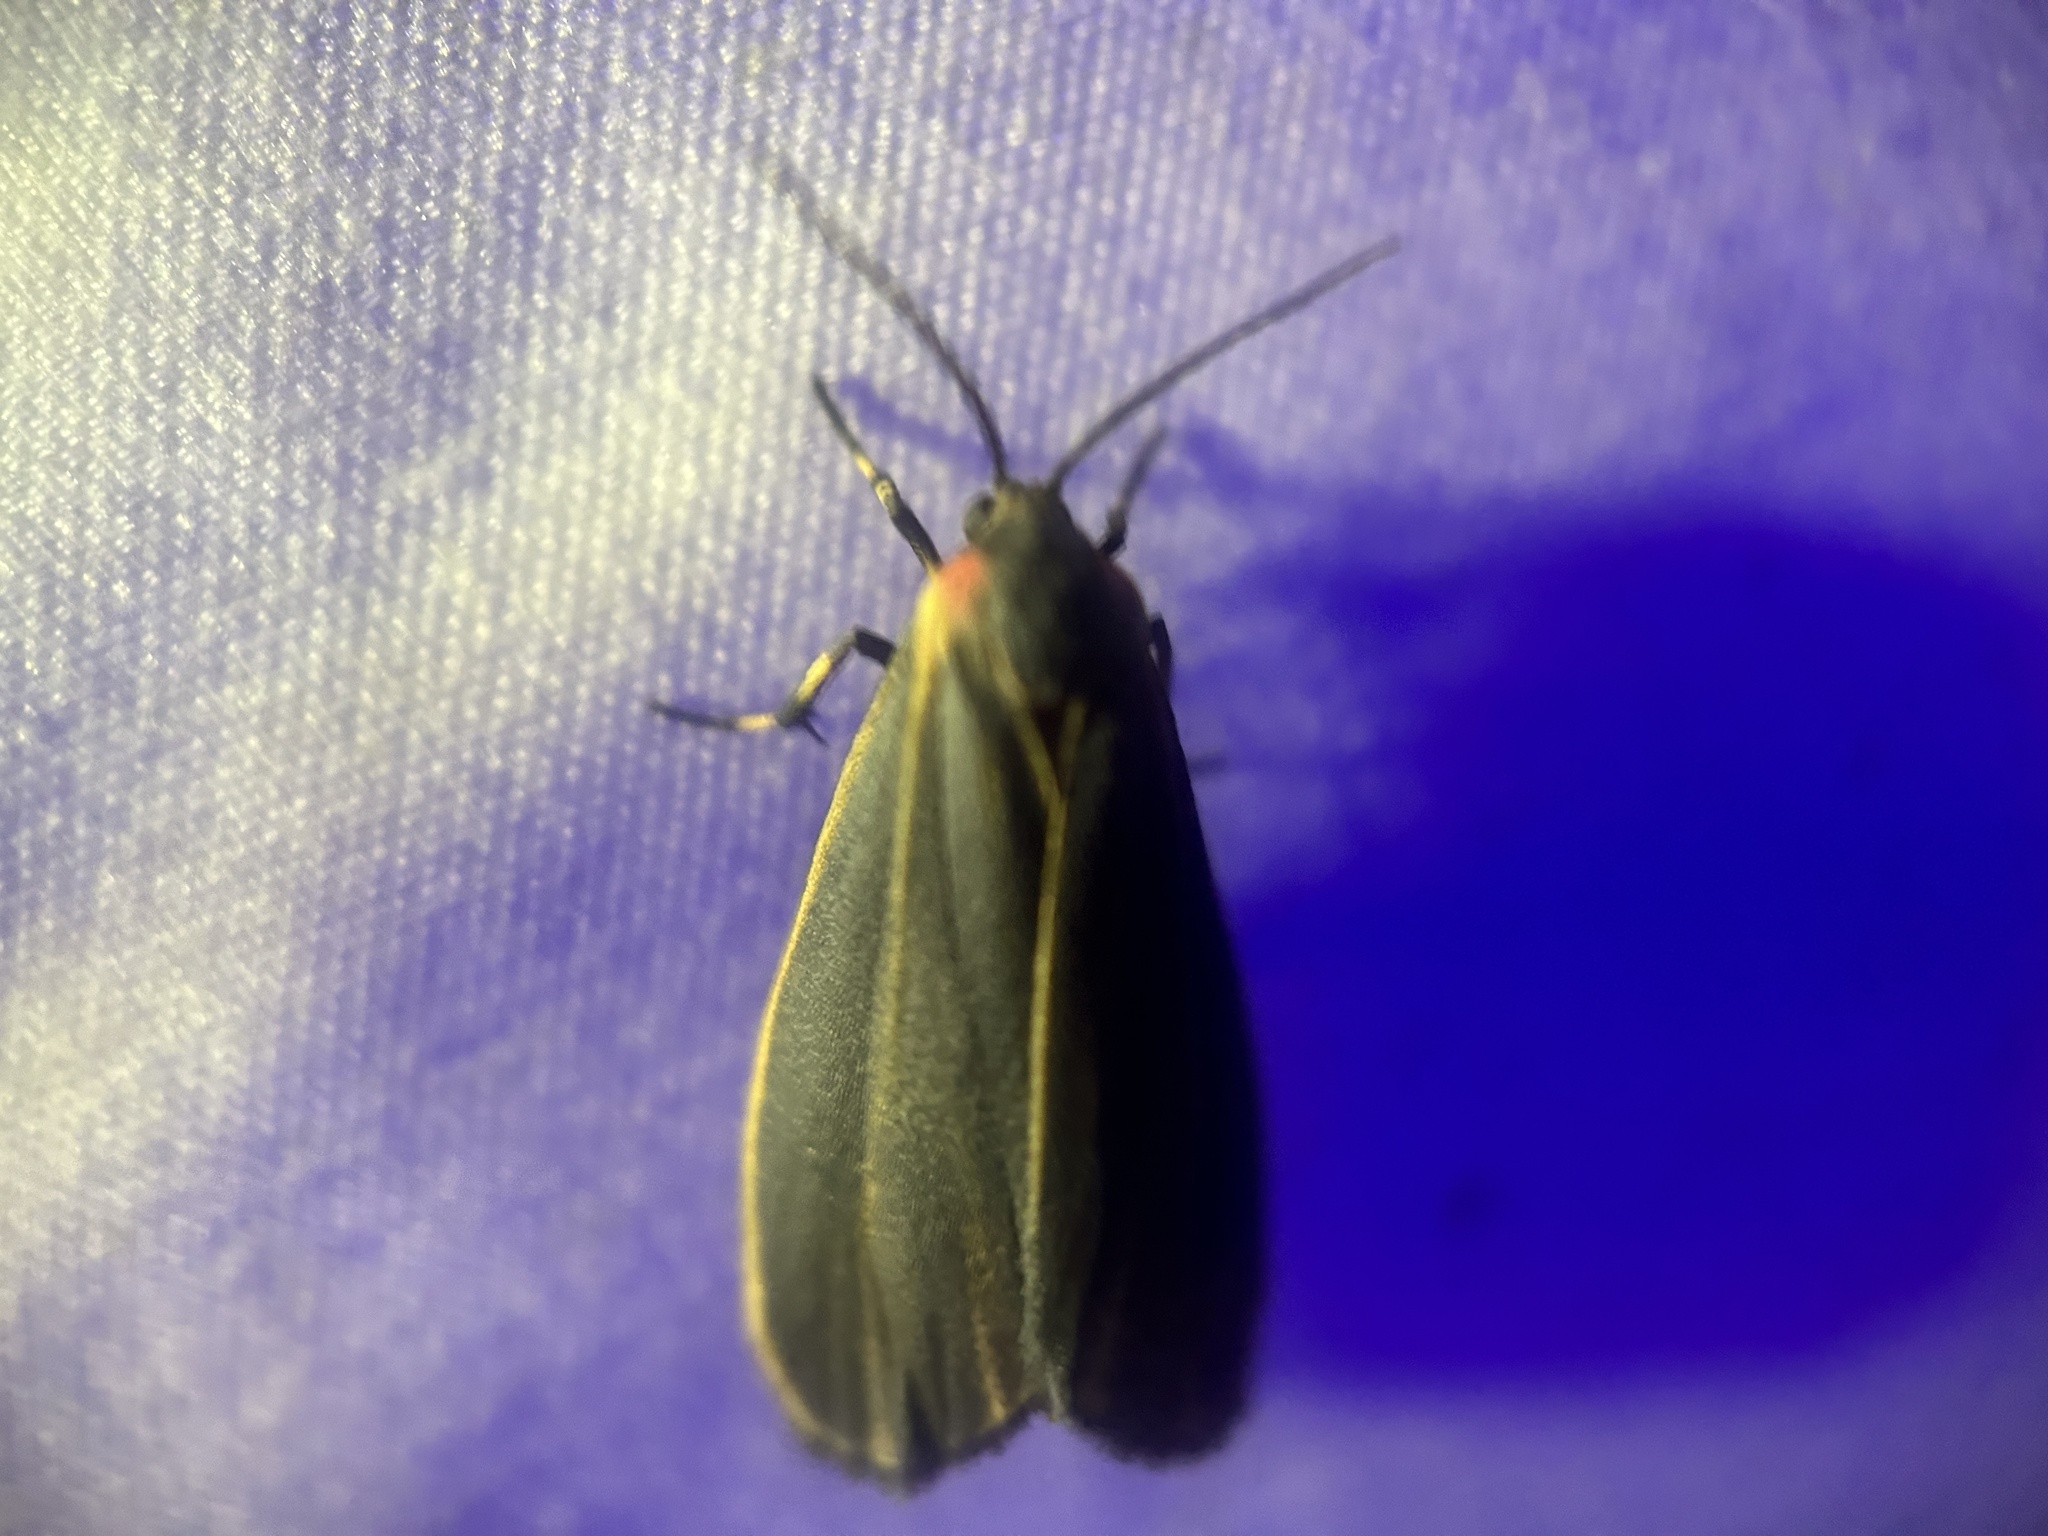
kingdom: Animalia
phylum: Arthropoda
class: Insecta
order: Lepidoptera
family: Erebidae
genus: Hypoprepia
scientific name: Hypoprepia fucosa
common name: Painted lichen moth
